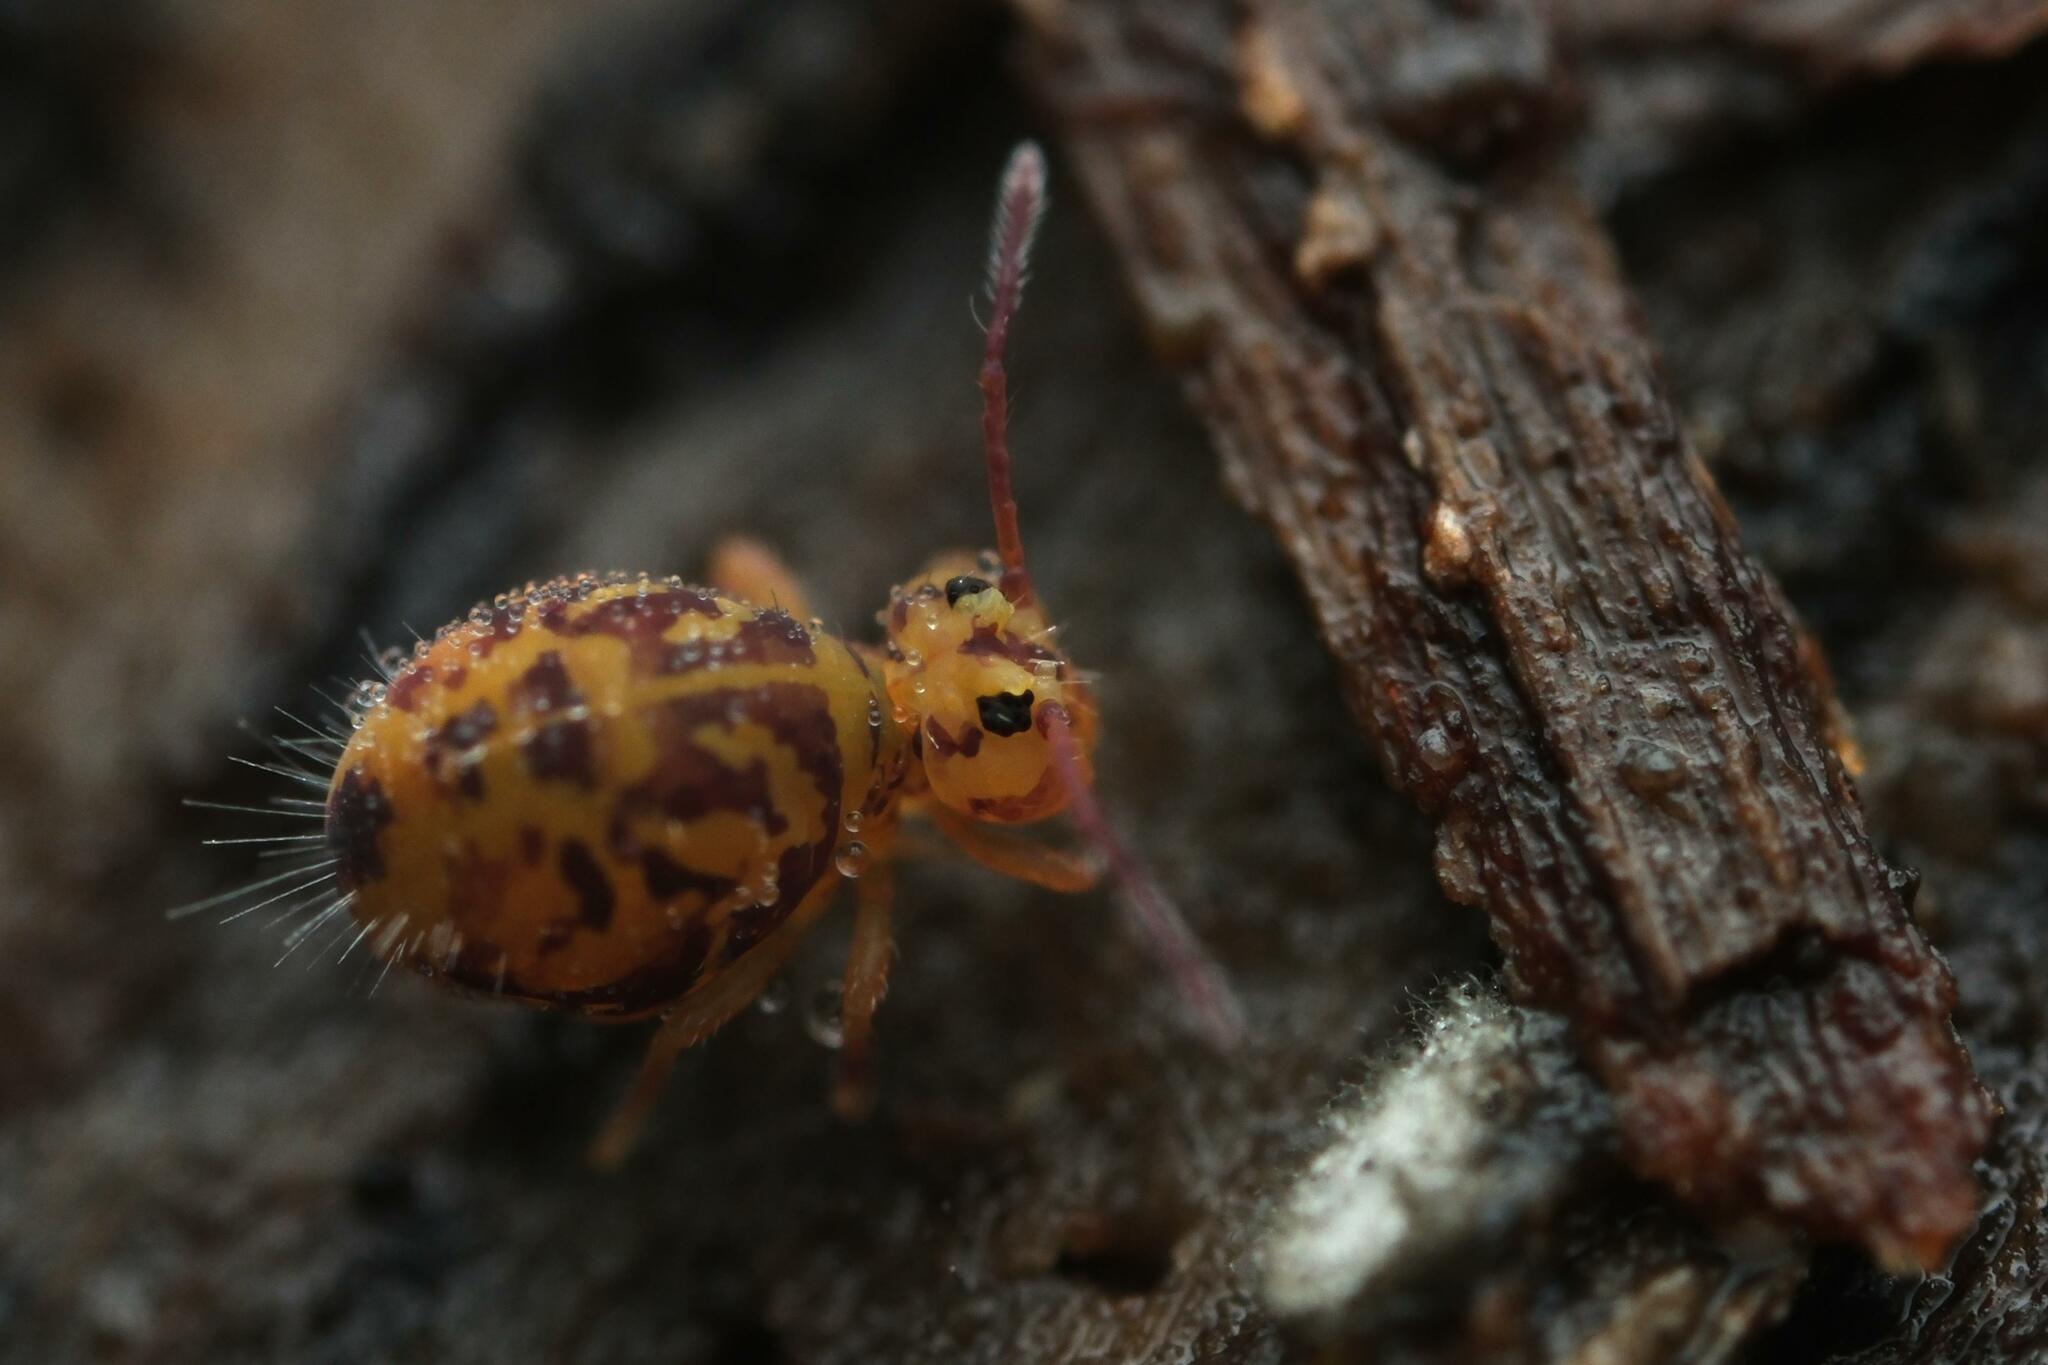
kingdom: Animalia
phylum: Arthropoda
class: Collembola
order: Symphypleona
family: Dicyrtomidae
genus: Dicyrtomina
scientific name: Dicyrtomina ornata
